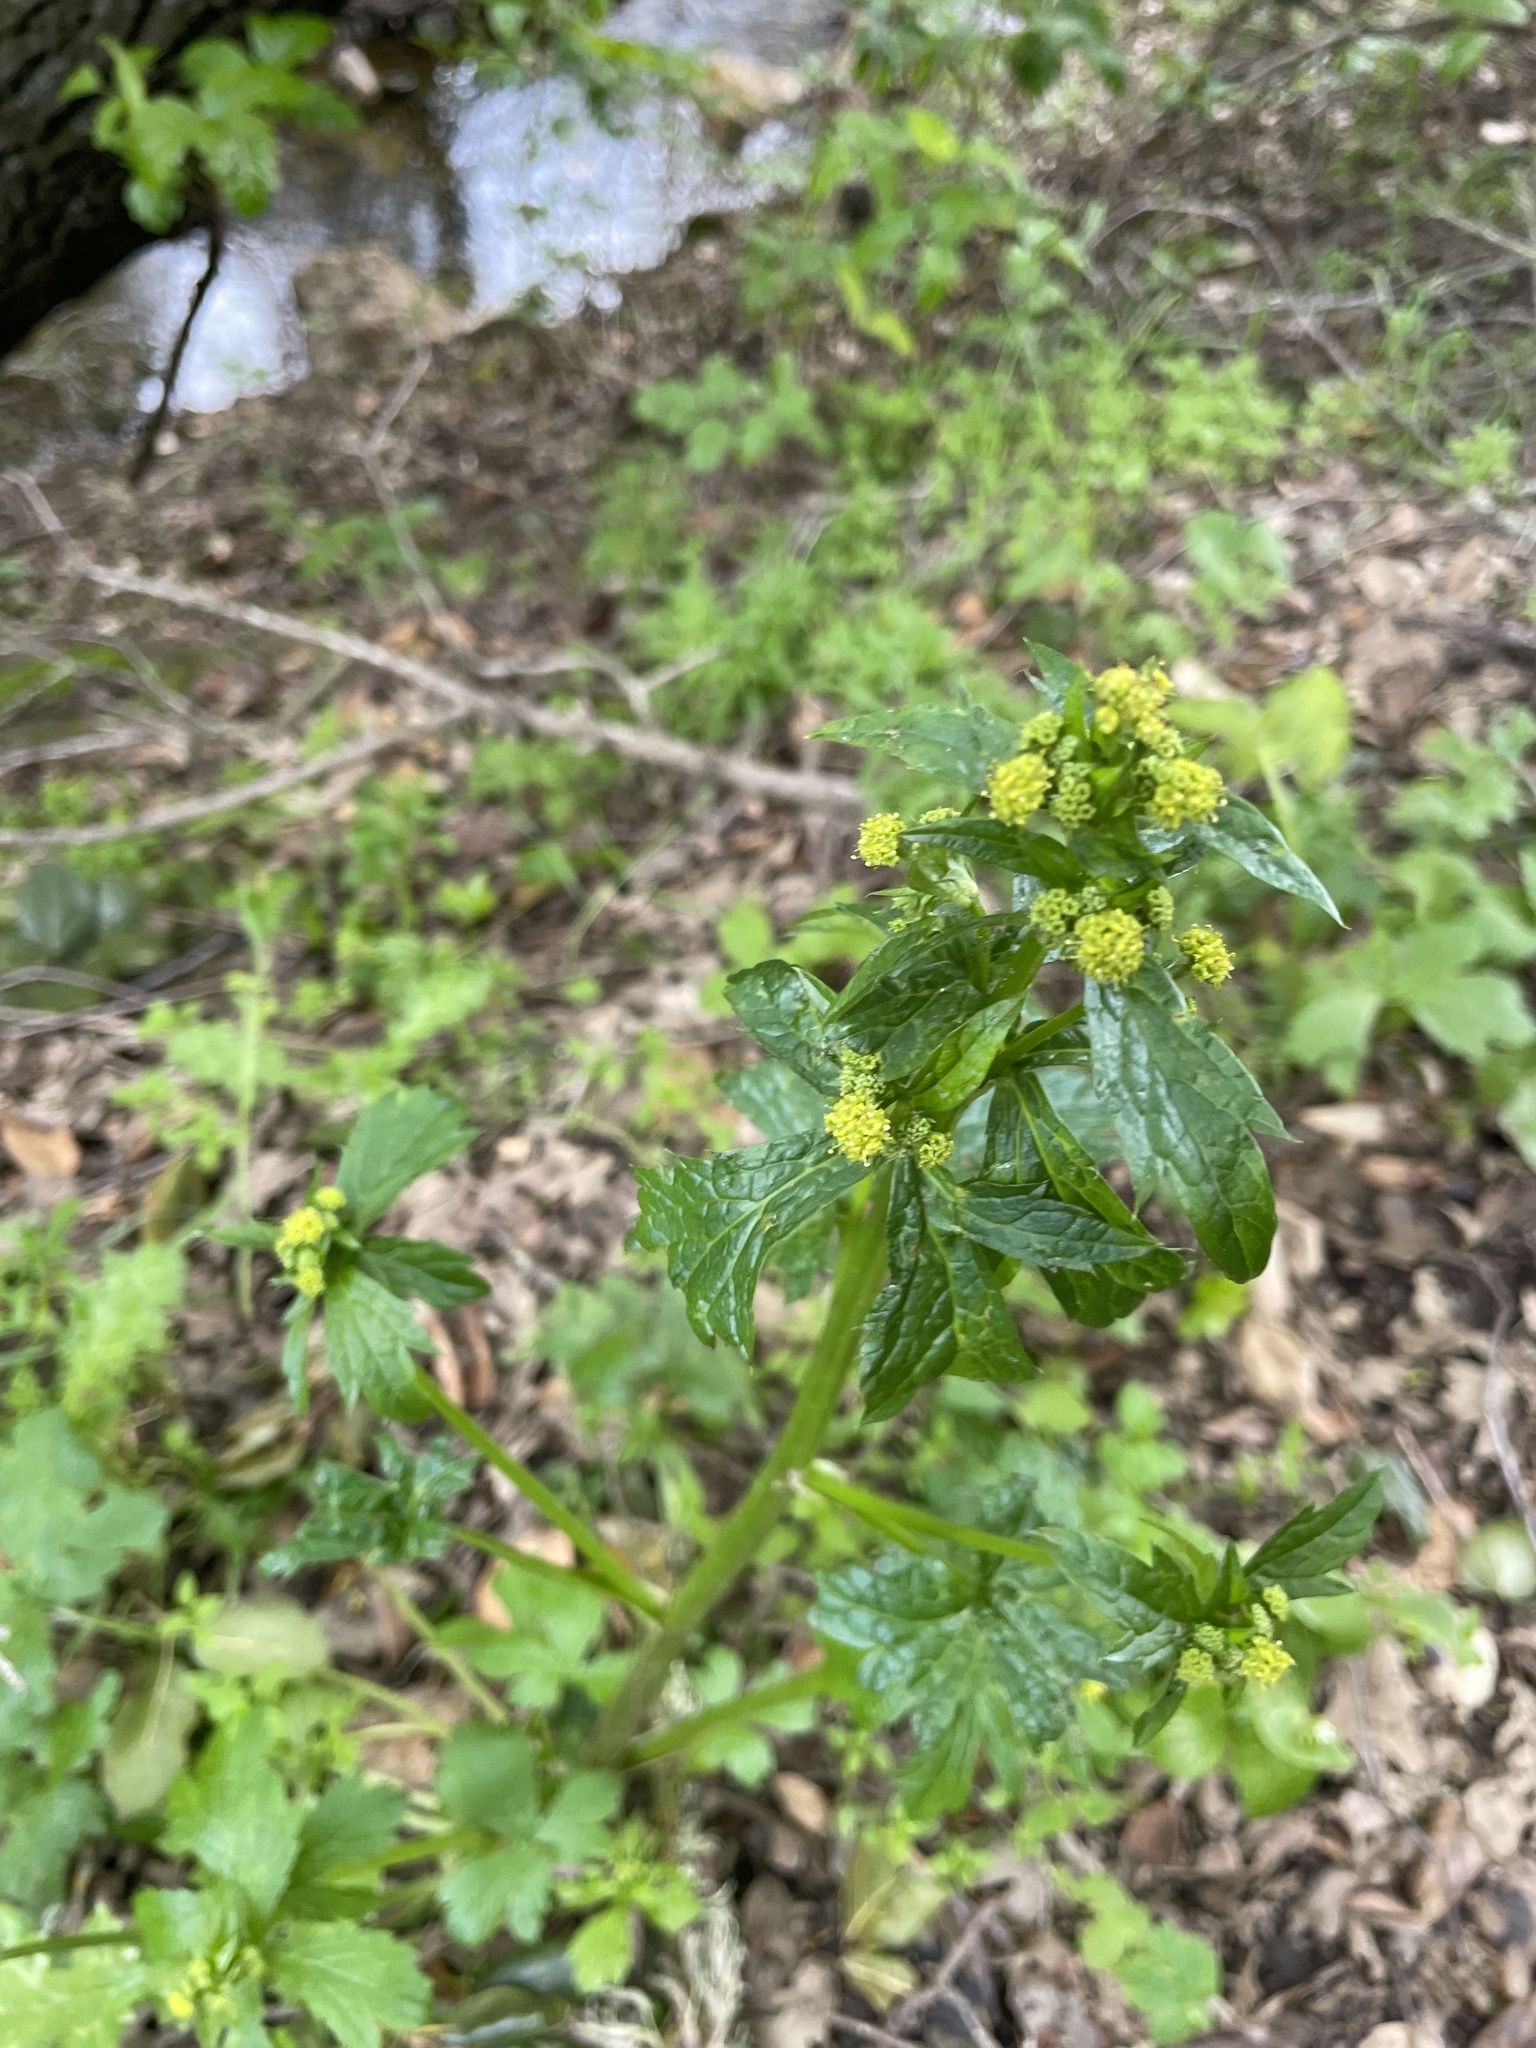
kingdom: Plantae
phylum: Tracheophyta
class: Magnoliopsida
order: Apiales
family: Apiaceae
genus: Sanicula
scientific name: Sanicula crassicaulis
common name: Western snakeroot
